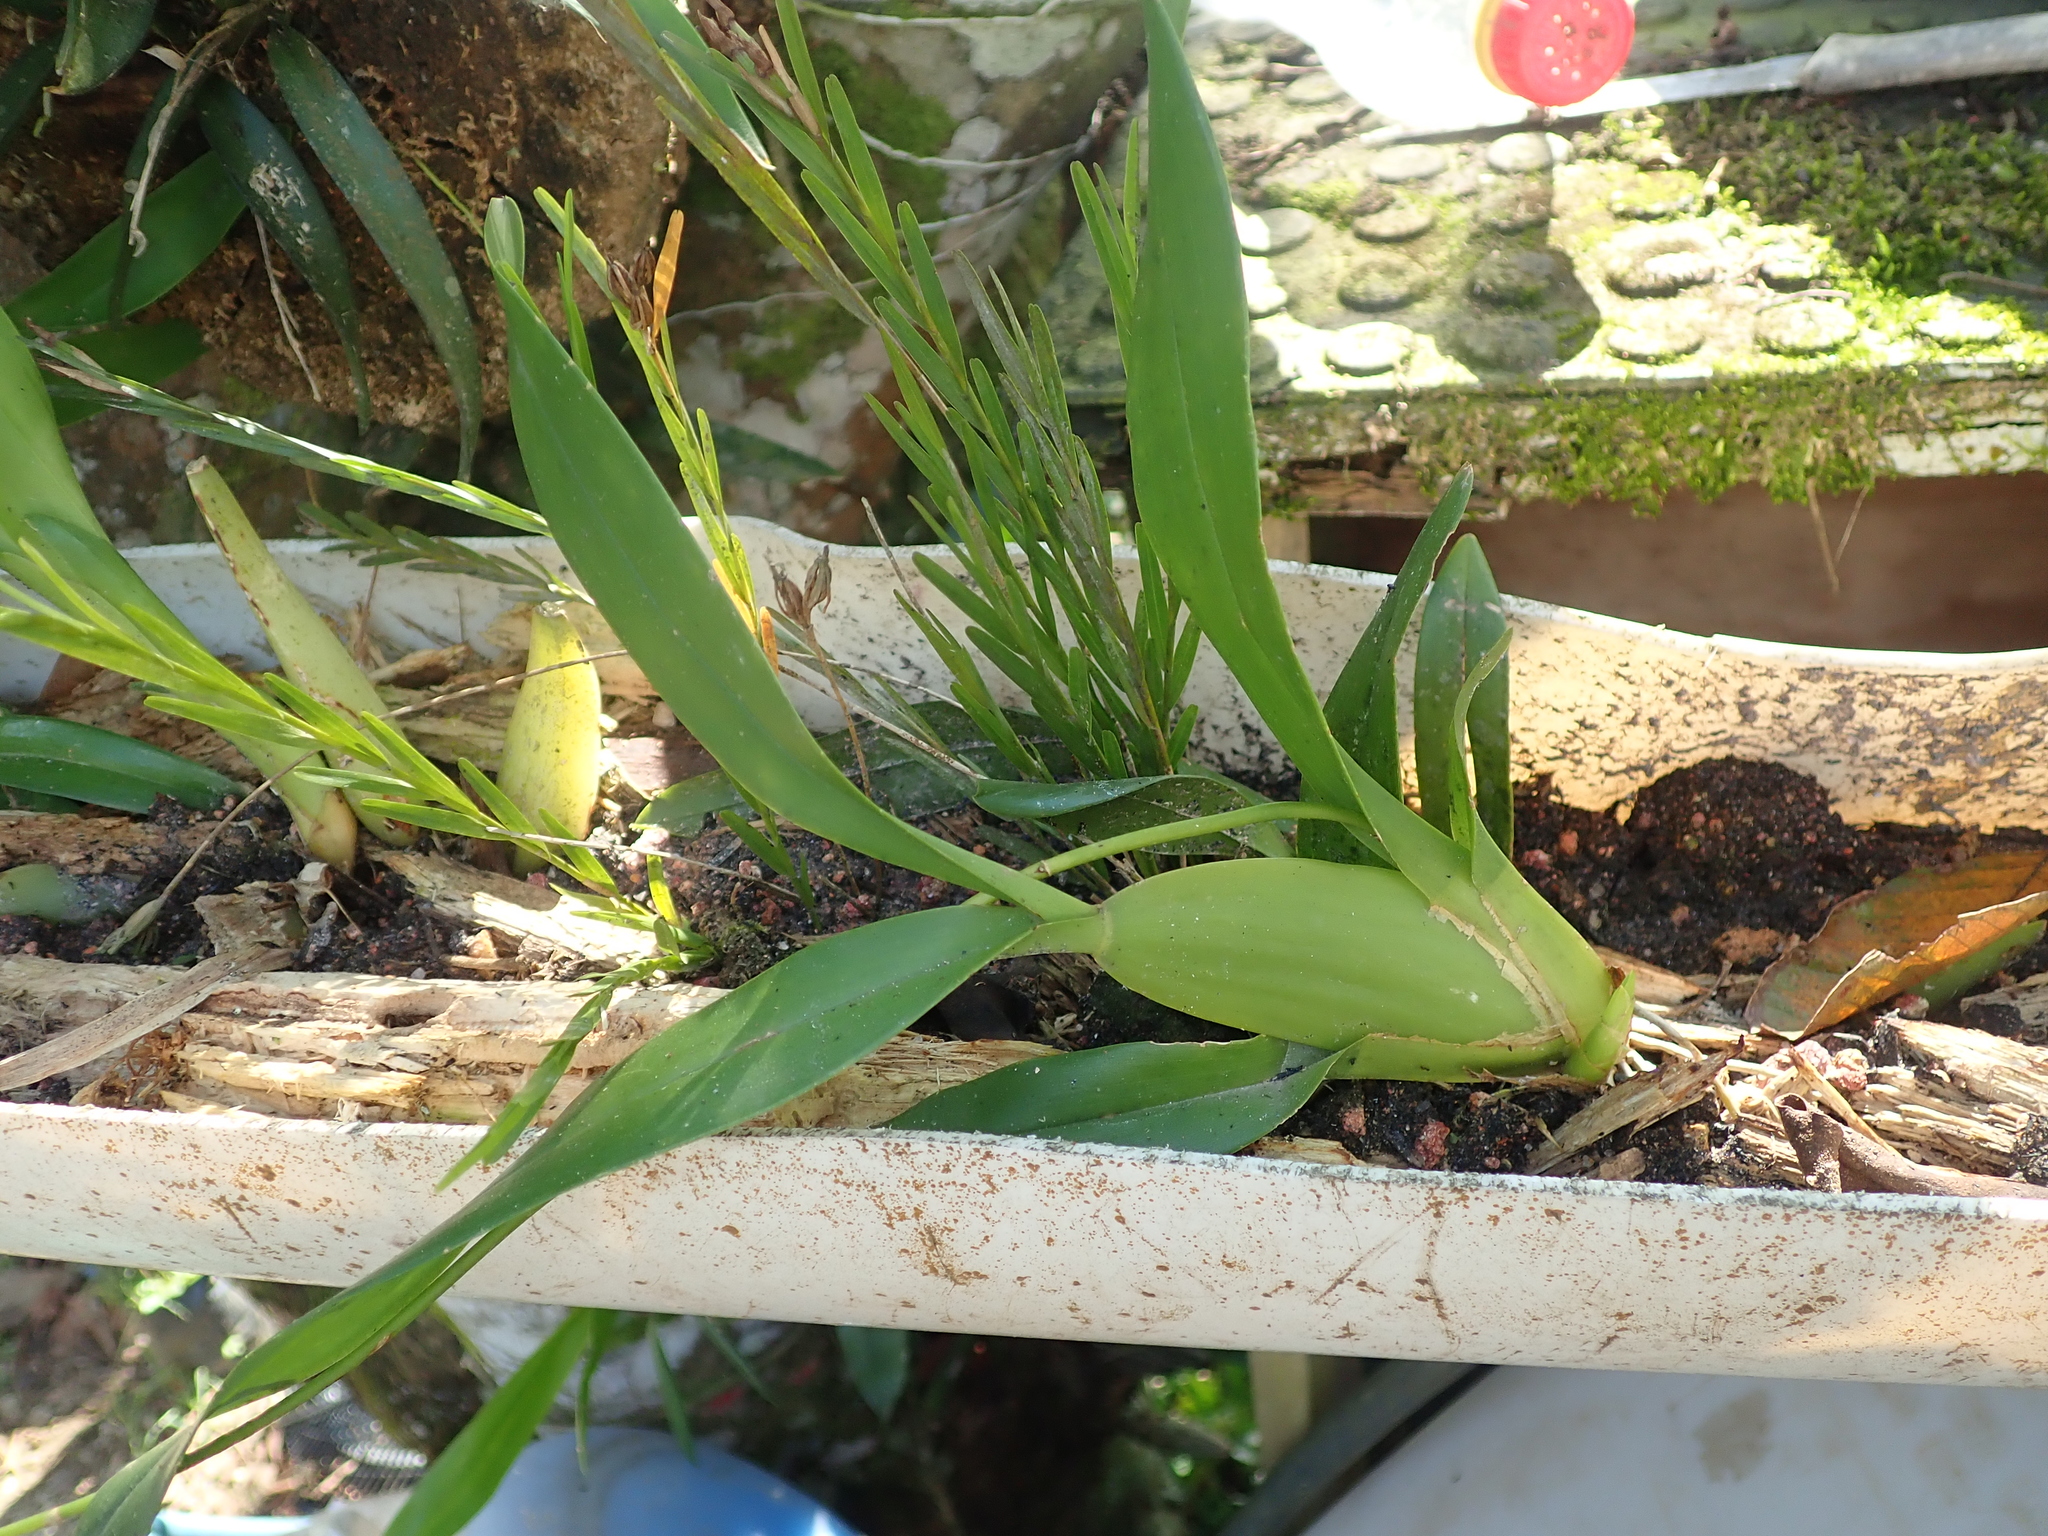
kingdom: Plantae
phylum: Tracheophyta
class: Liliopsida
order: Asparagales
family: Orchidaceae
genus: Gomesa
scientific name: Gomesa flexuosa
